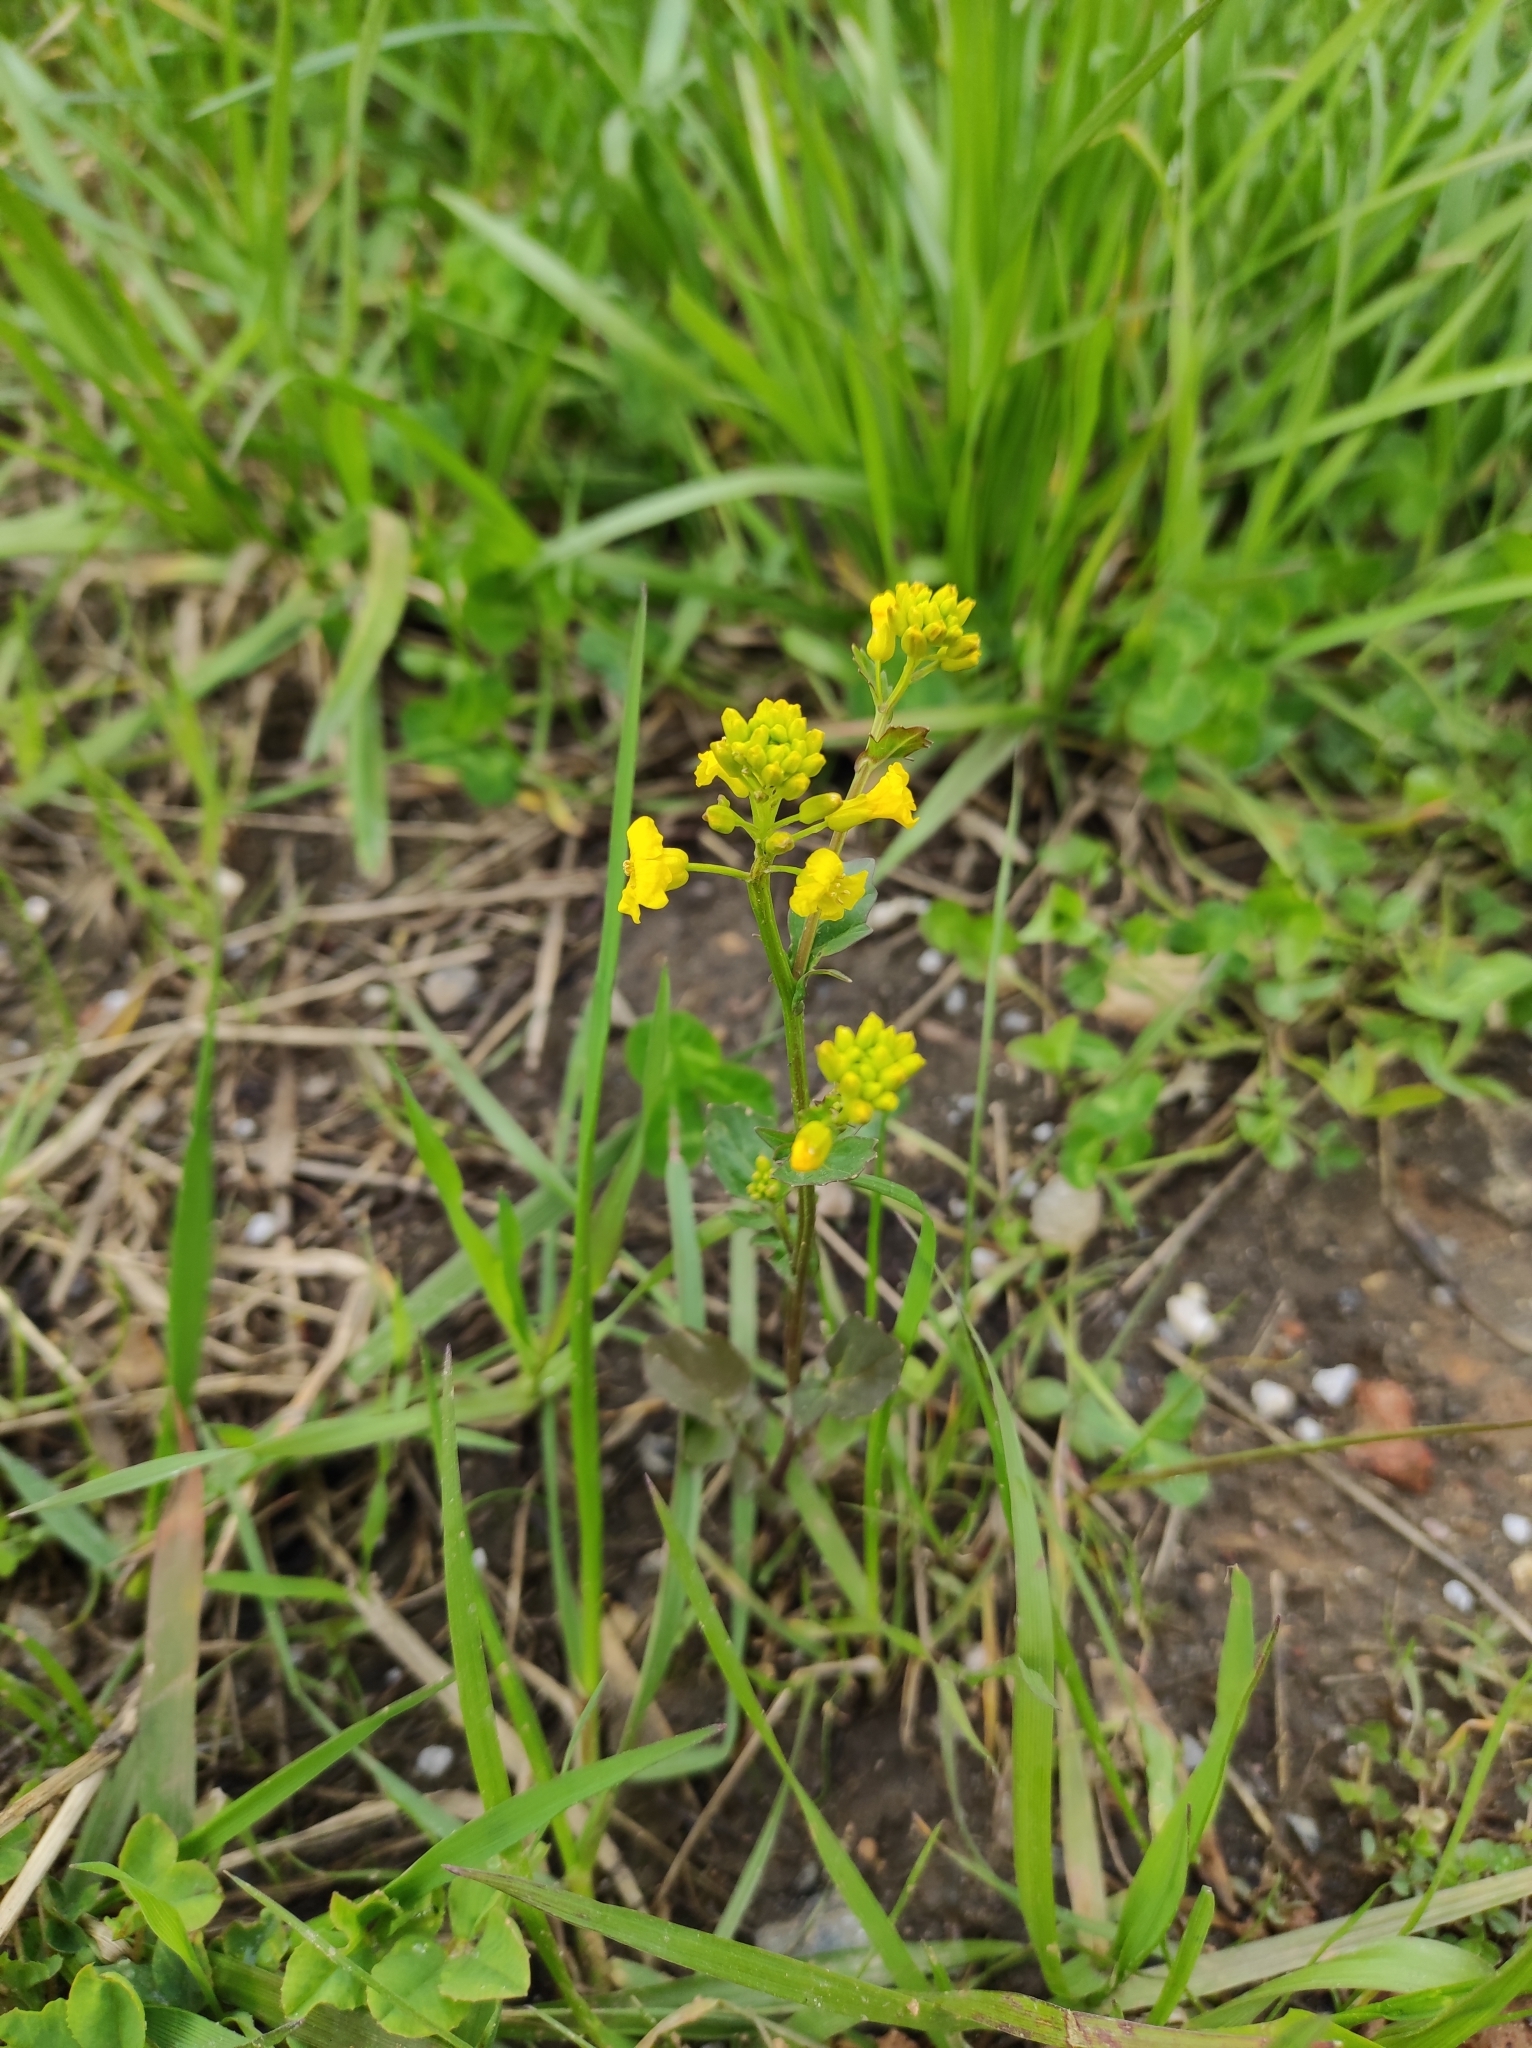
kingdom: Plantae
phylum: Tracheophyta
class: Magnoliopsida
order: Brassicales
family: Brassicaceae
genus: Barbarea
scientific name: Barbarea vulgaris
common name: Cressy-greens
